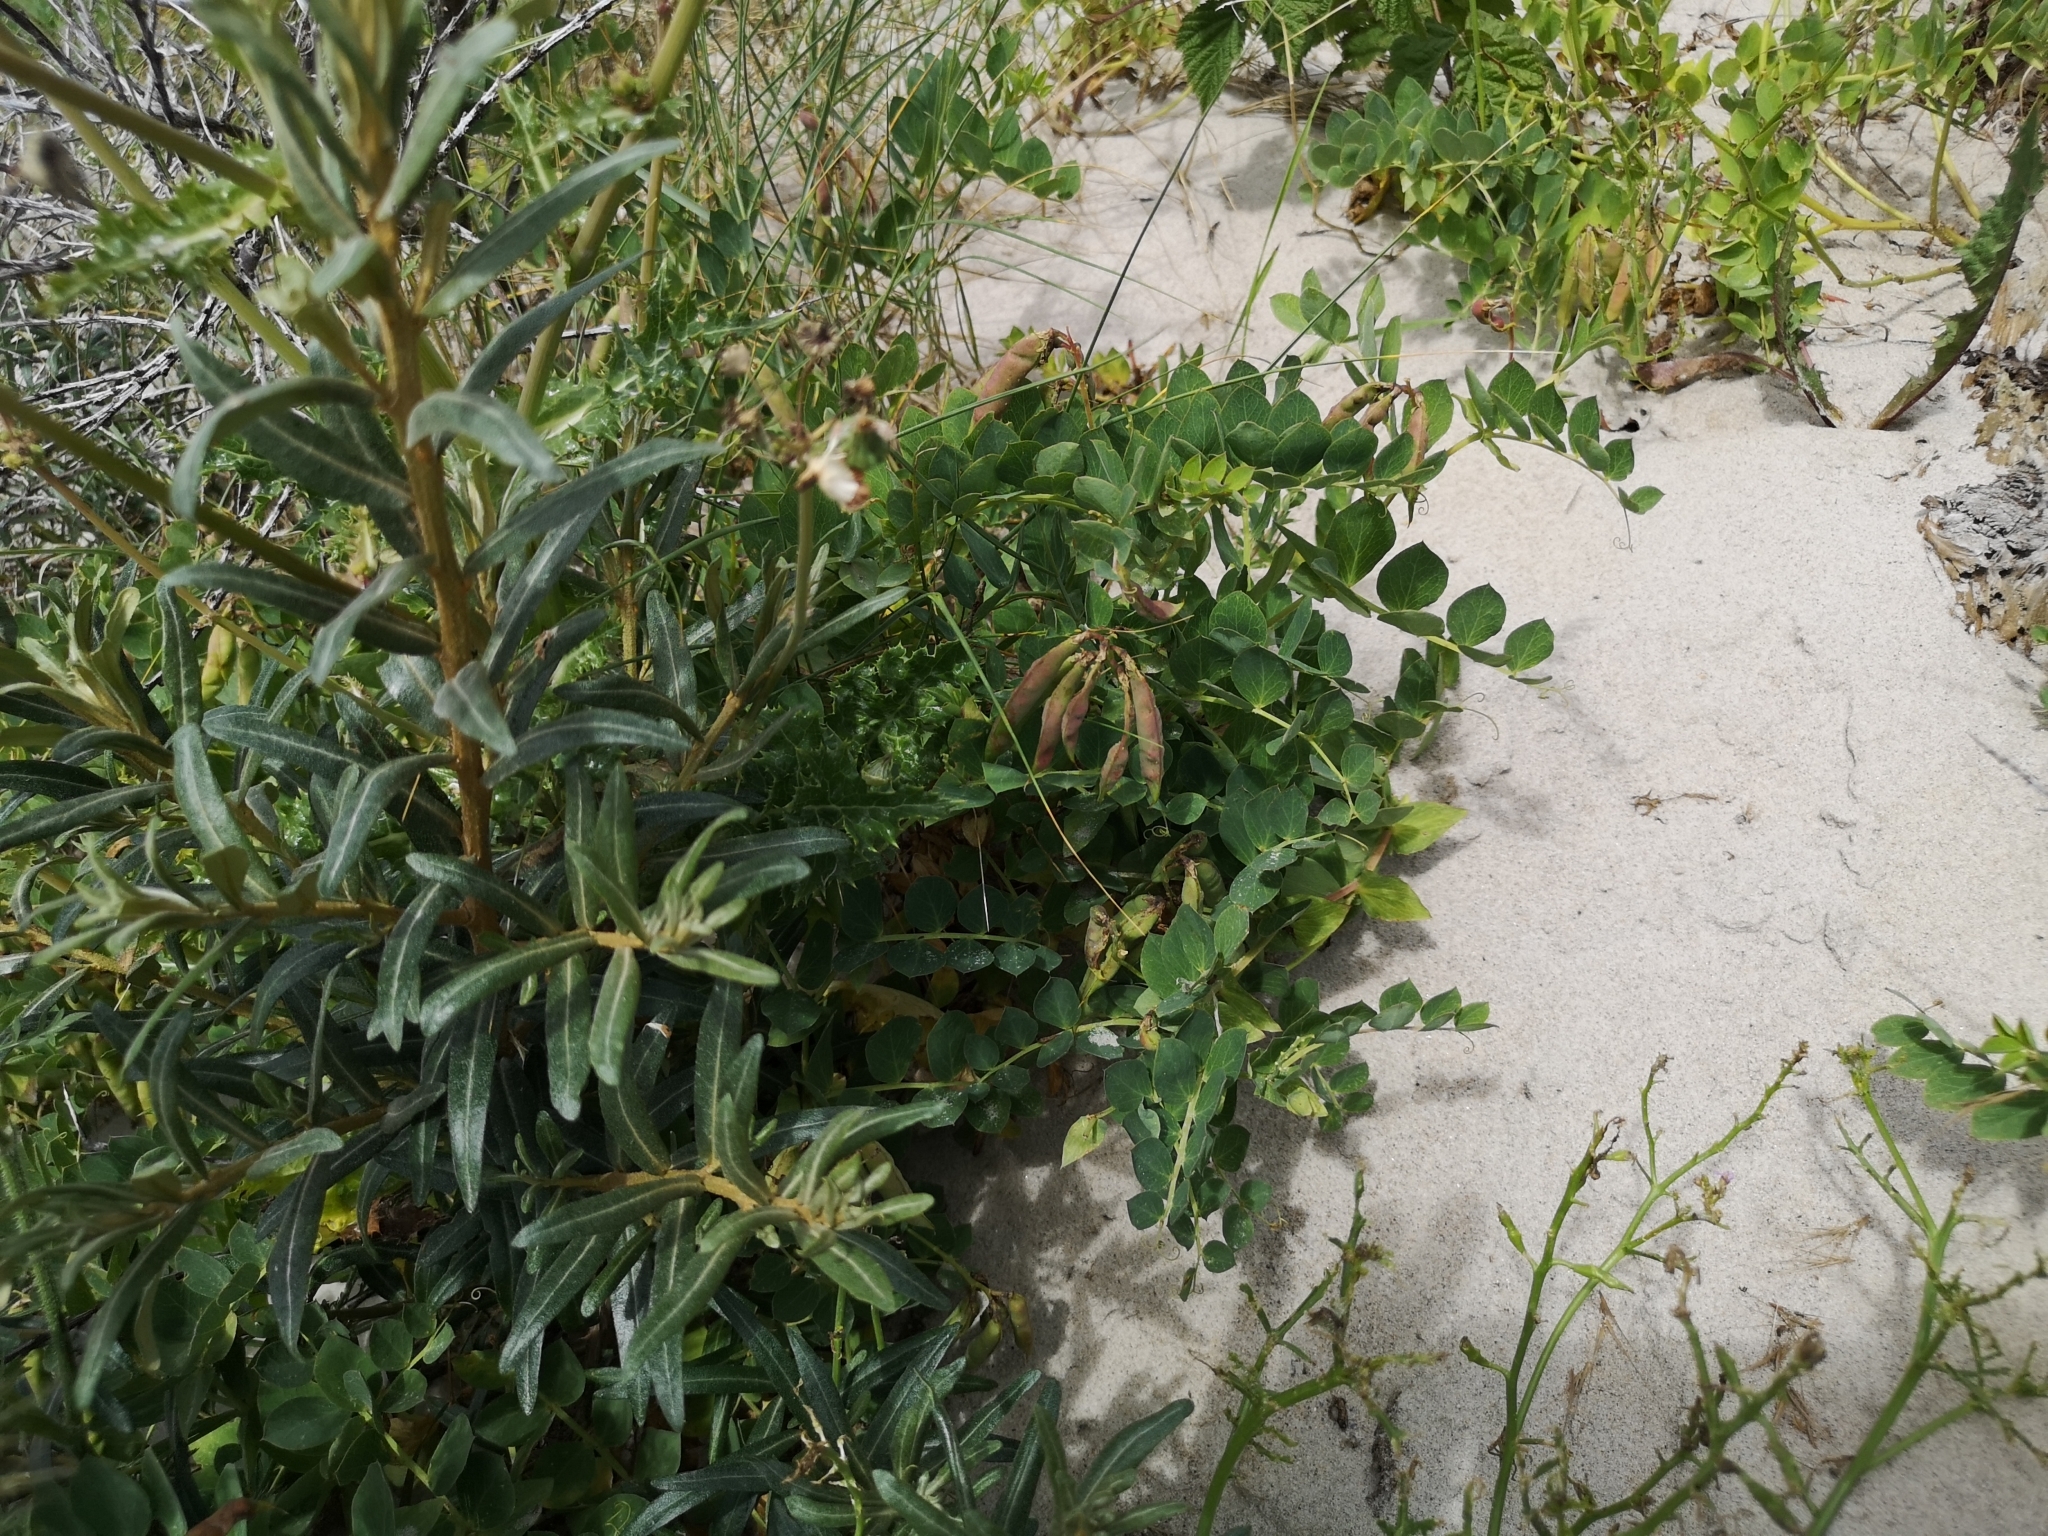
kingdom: Plantae
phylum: Tracheophyta
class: Magnoliopsida
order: Fabales
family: Fabaceae
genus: Lathyrus
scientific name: Lathyrus japonicus
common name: Sea pea
